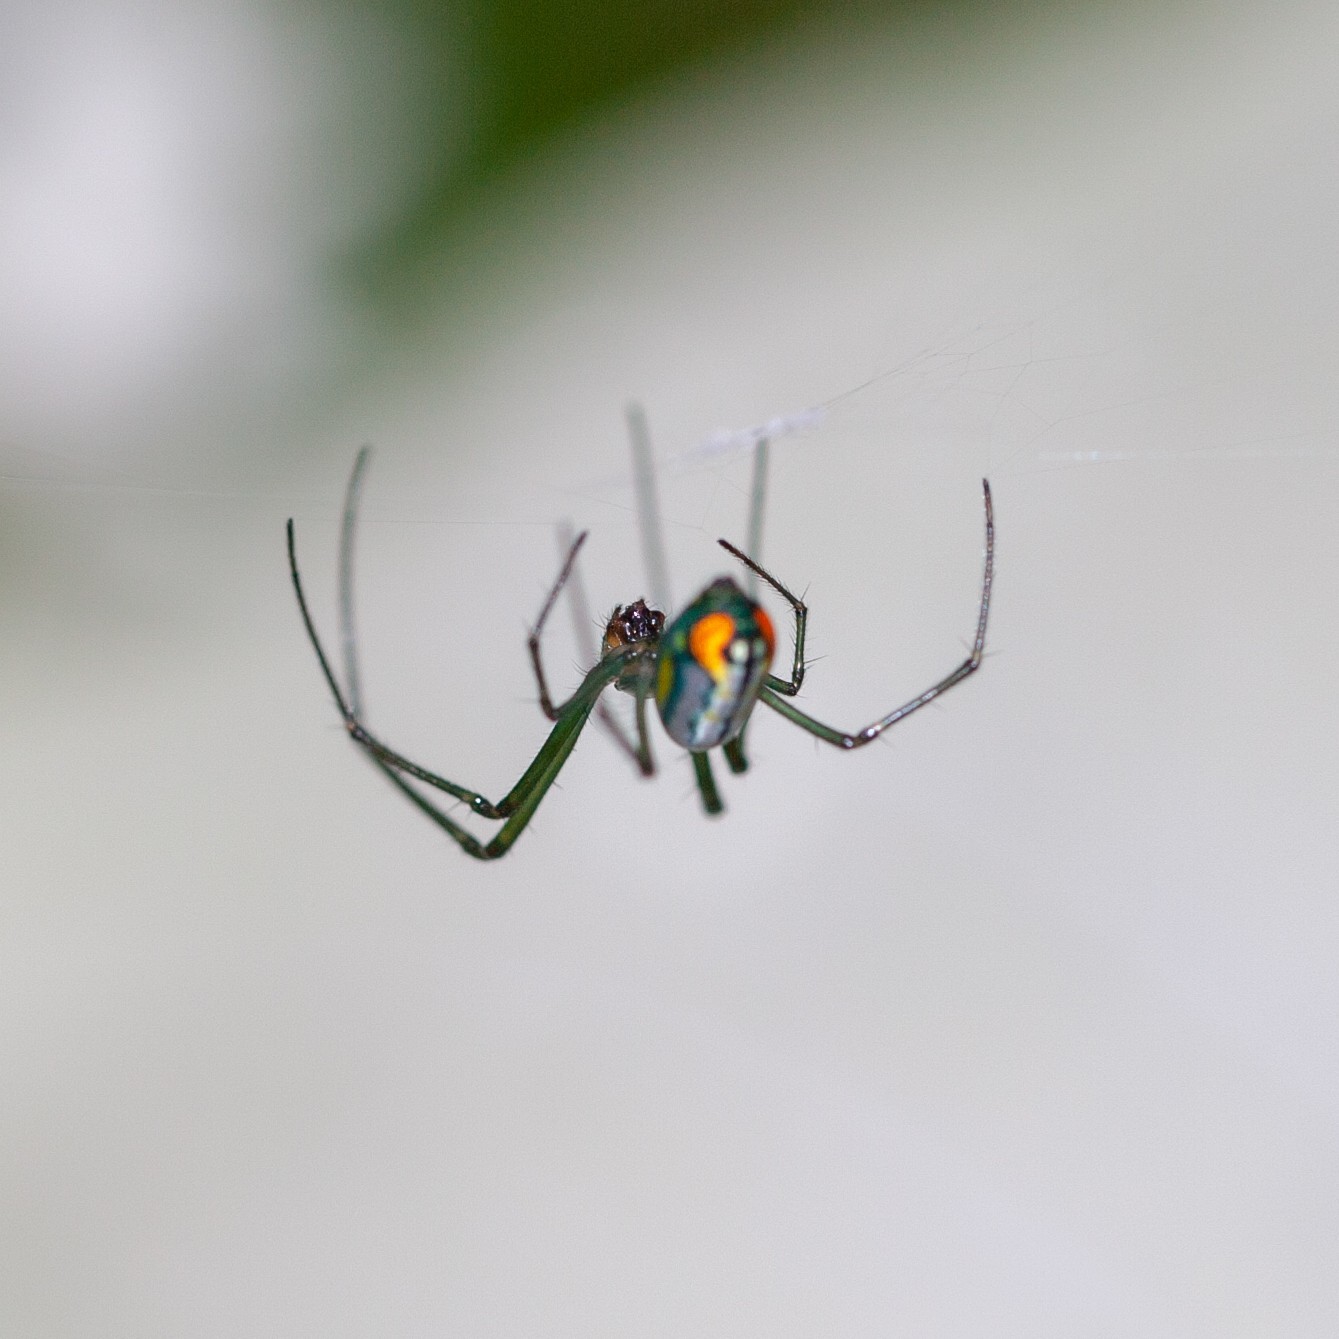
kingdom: Animalia
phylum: Arthropoda
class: Arachnida
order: Araneae
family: Tetragnathidae
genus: Leucauge
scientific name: Leucauge argyrobapta
